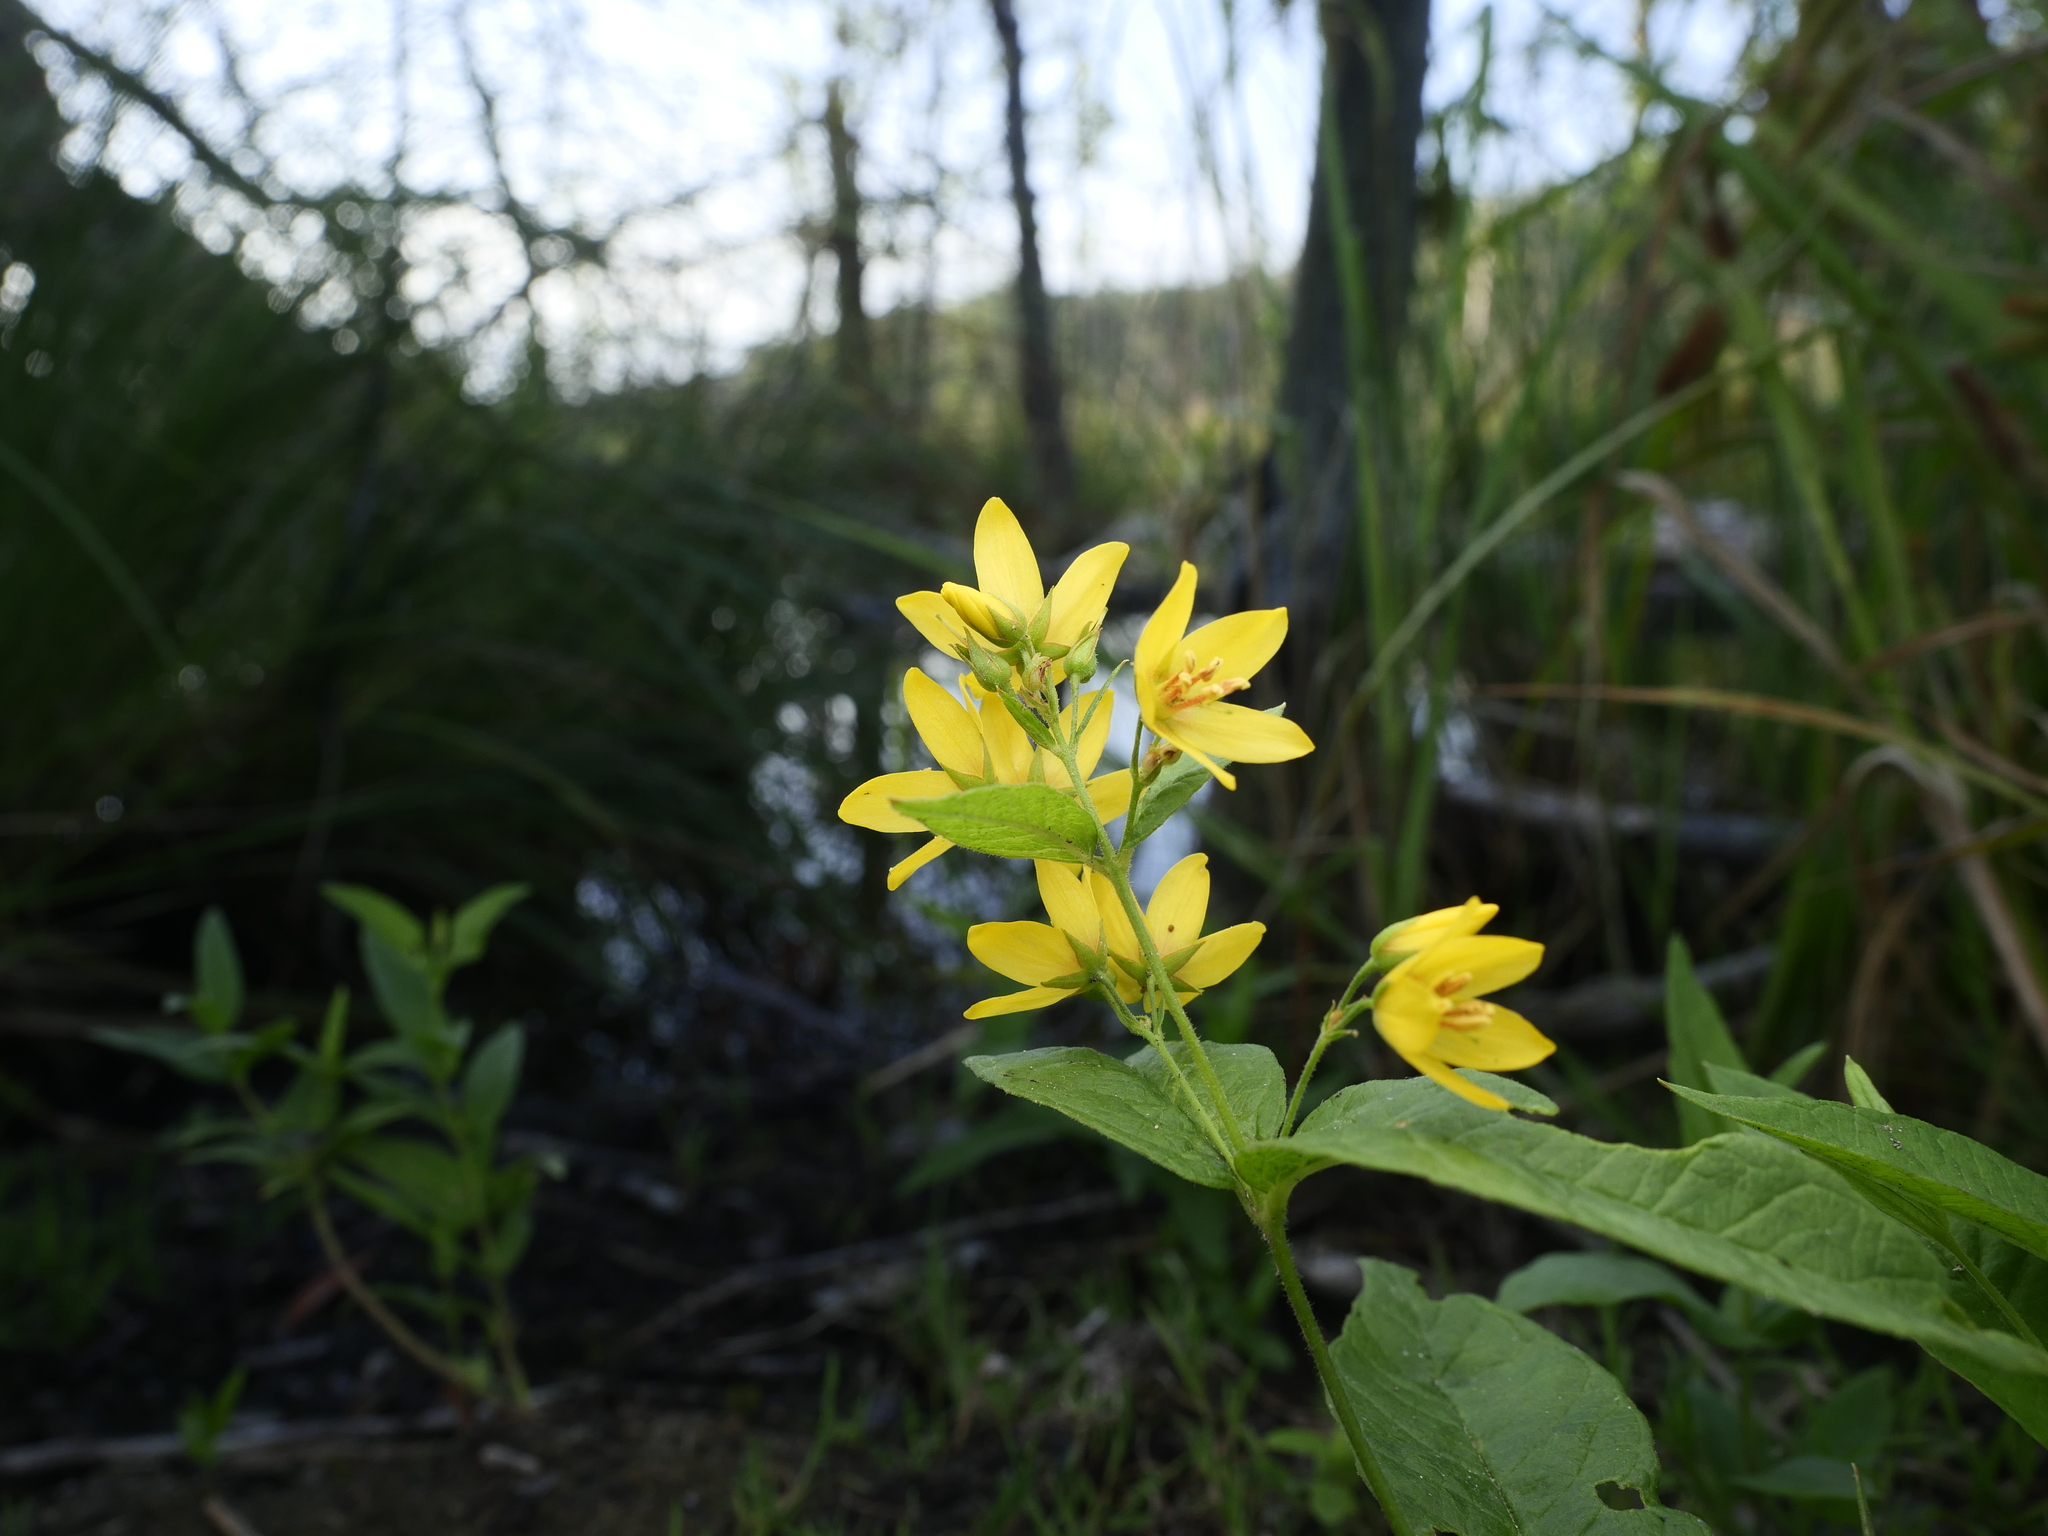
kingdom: Plantae
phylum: Tracheophyta
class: Magnoliopsida
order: Ericales
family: Primulaceae
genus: Lysimachia
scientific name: Lysimachia vulgaris
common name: Yellow loosestrife
